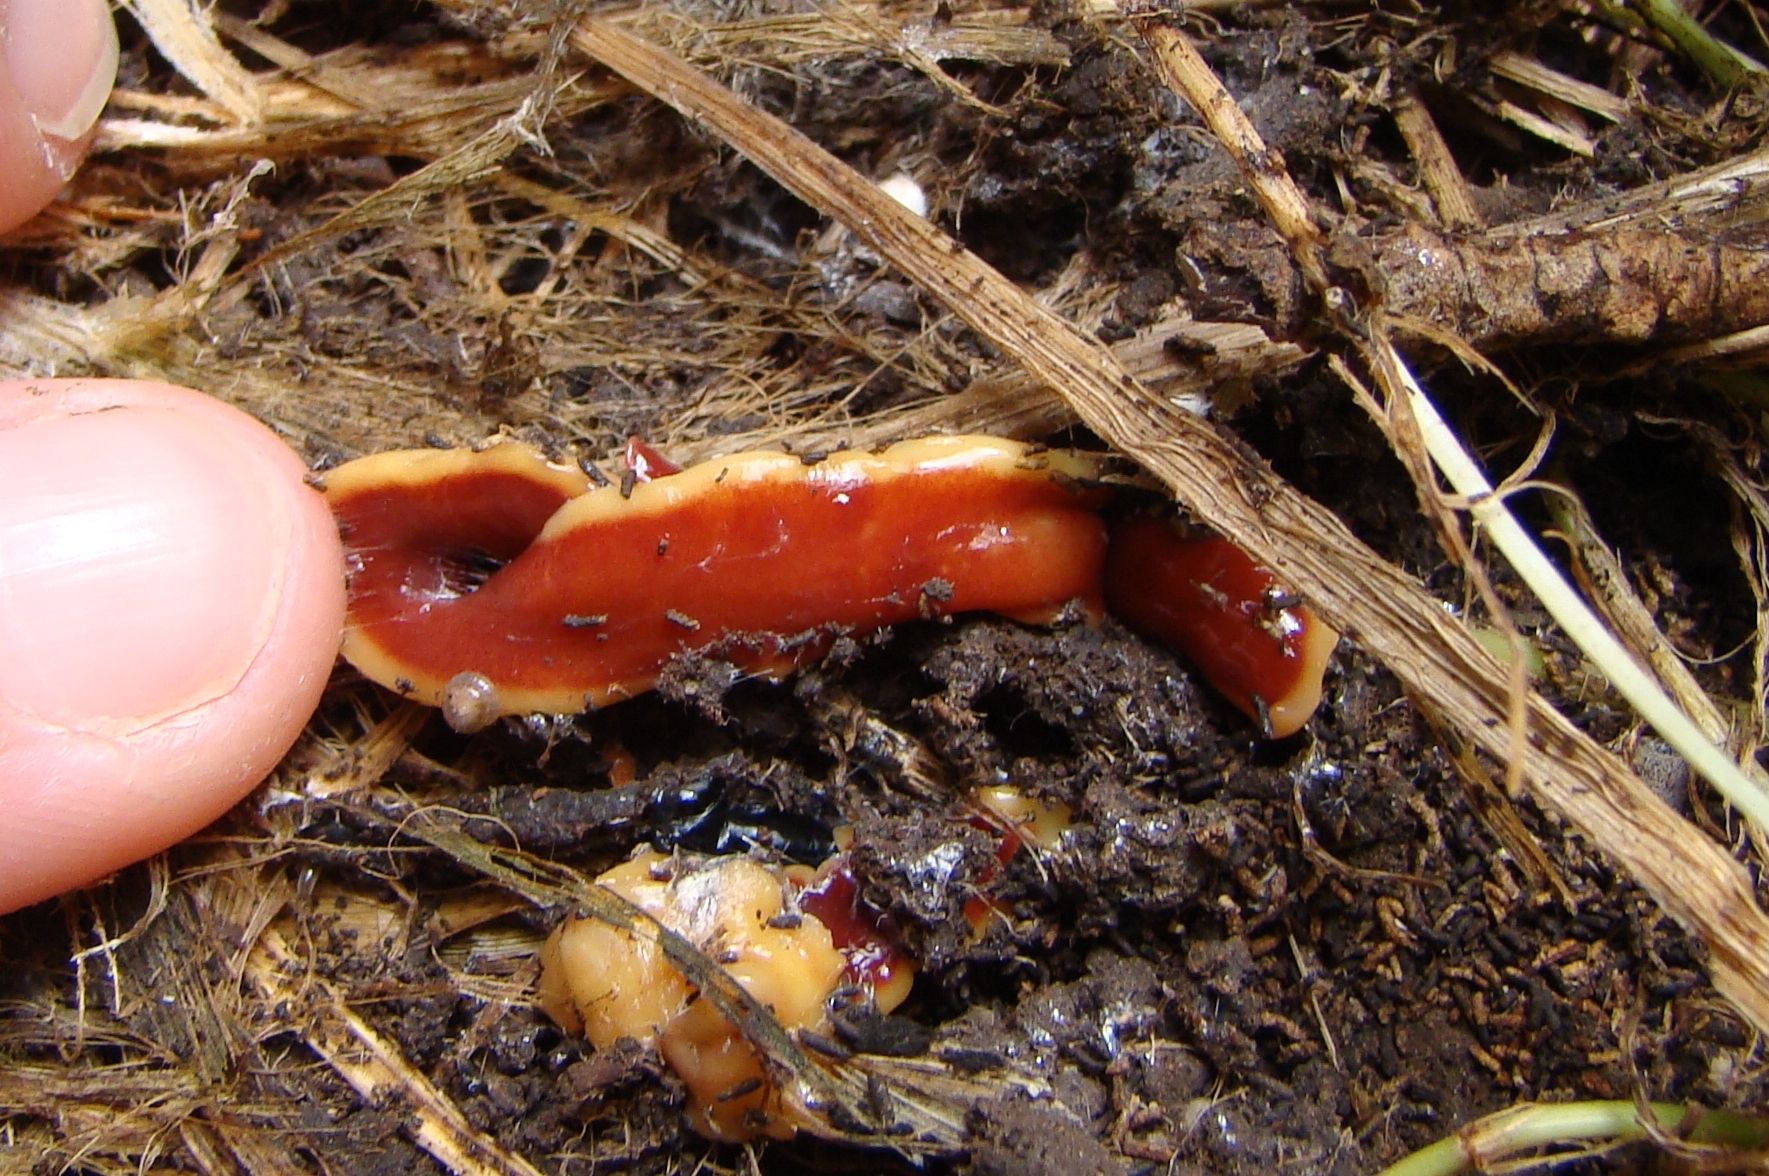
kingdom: Animalia
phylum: Platyhelminthes
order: Tricladida
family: Geoplanidae
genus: Arthurdendyus
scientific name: Arthurdendyus testaceus
